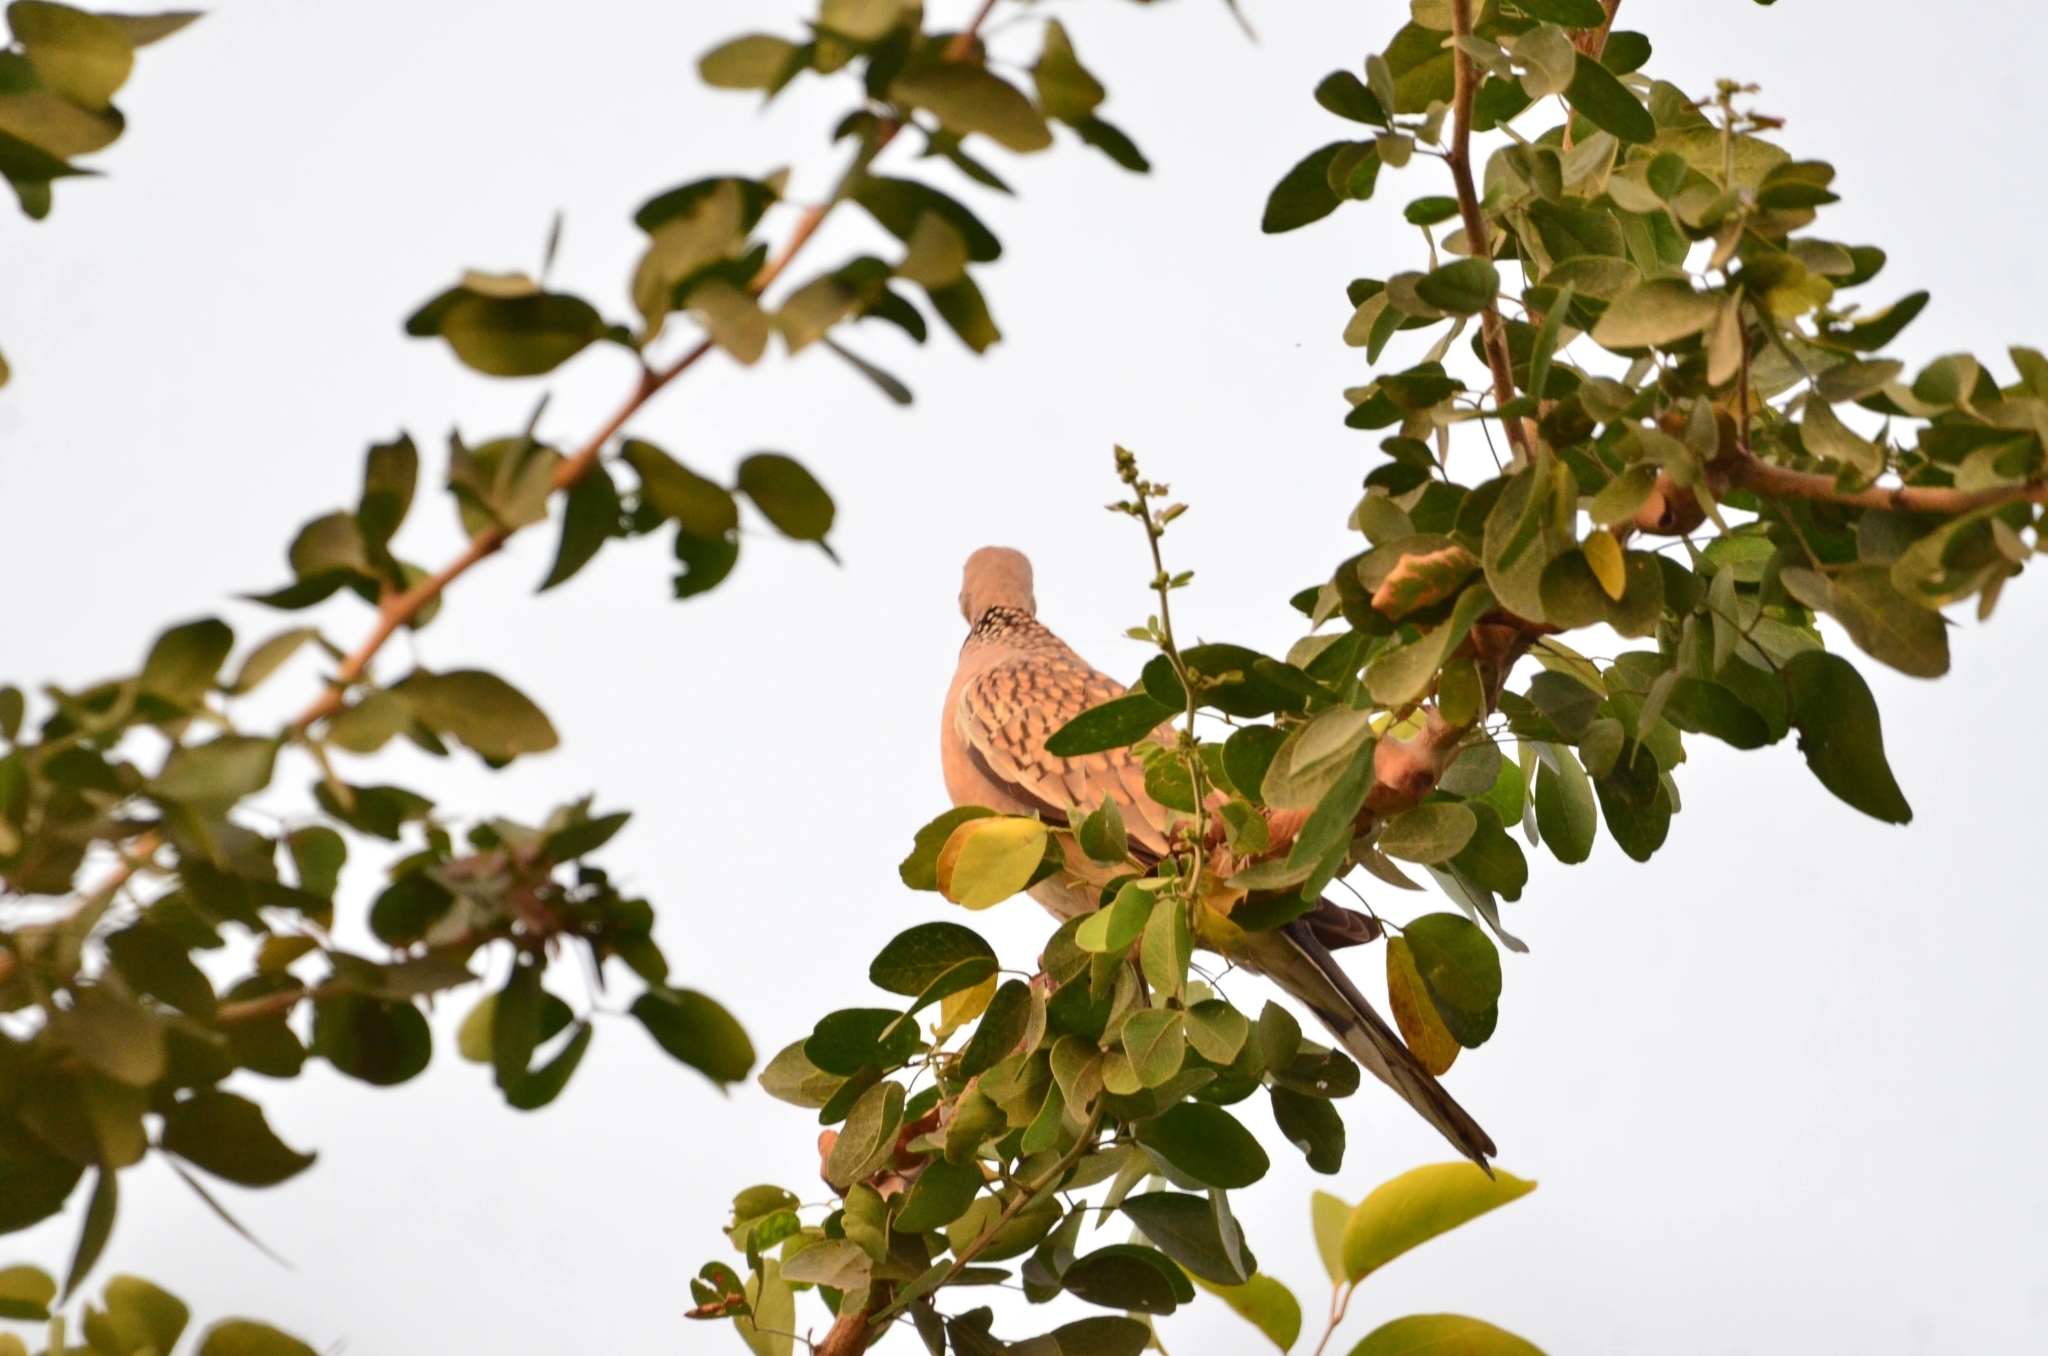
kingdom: Animalia
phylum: Chordata
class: Aves
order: Columbiformes
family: Columbidae
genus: Spilopelia
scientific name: Spilopelia chinensis
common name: Spotted dove
